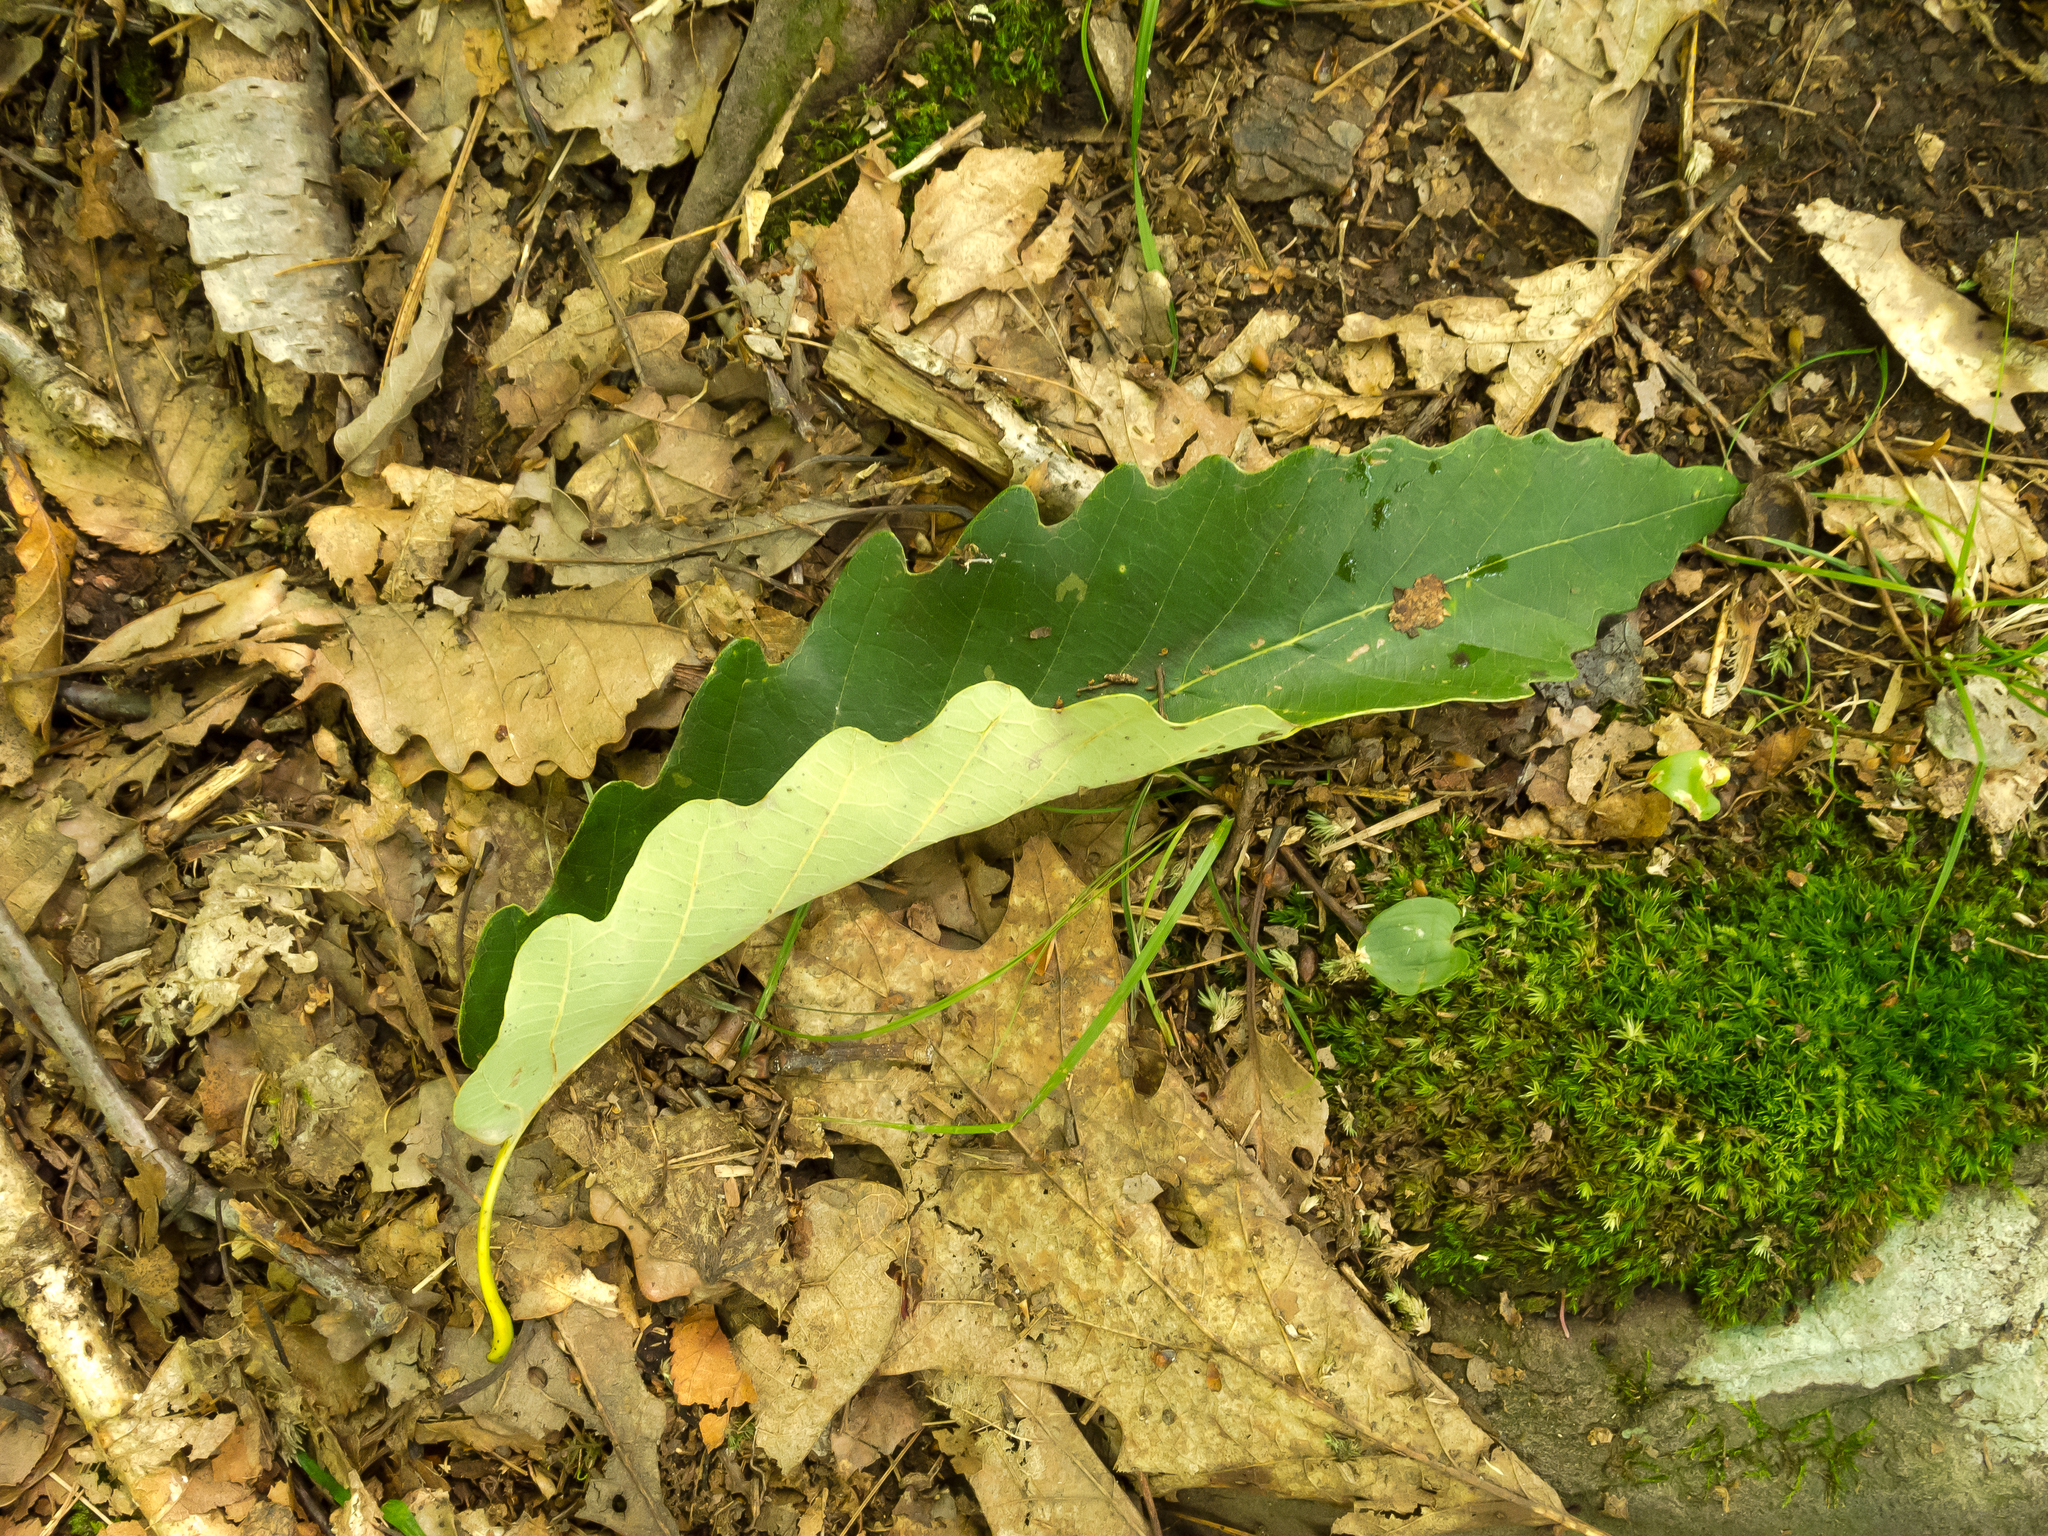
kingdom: Plantae
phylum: Tracheophyta
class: Magnoliopsida
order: Fagales
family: Fagaceae
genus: Quercus
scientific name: Quercus montana
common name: Chestnut oak
